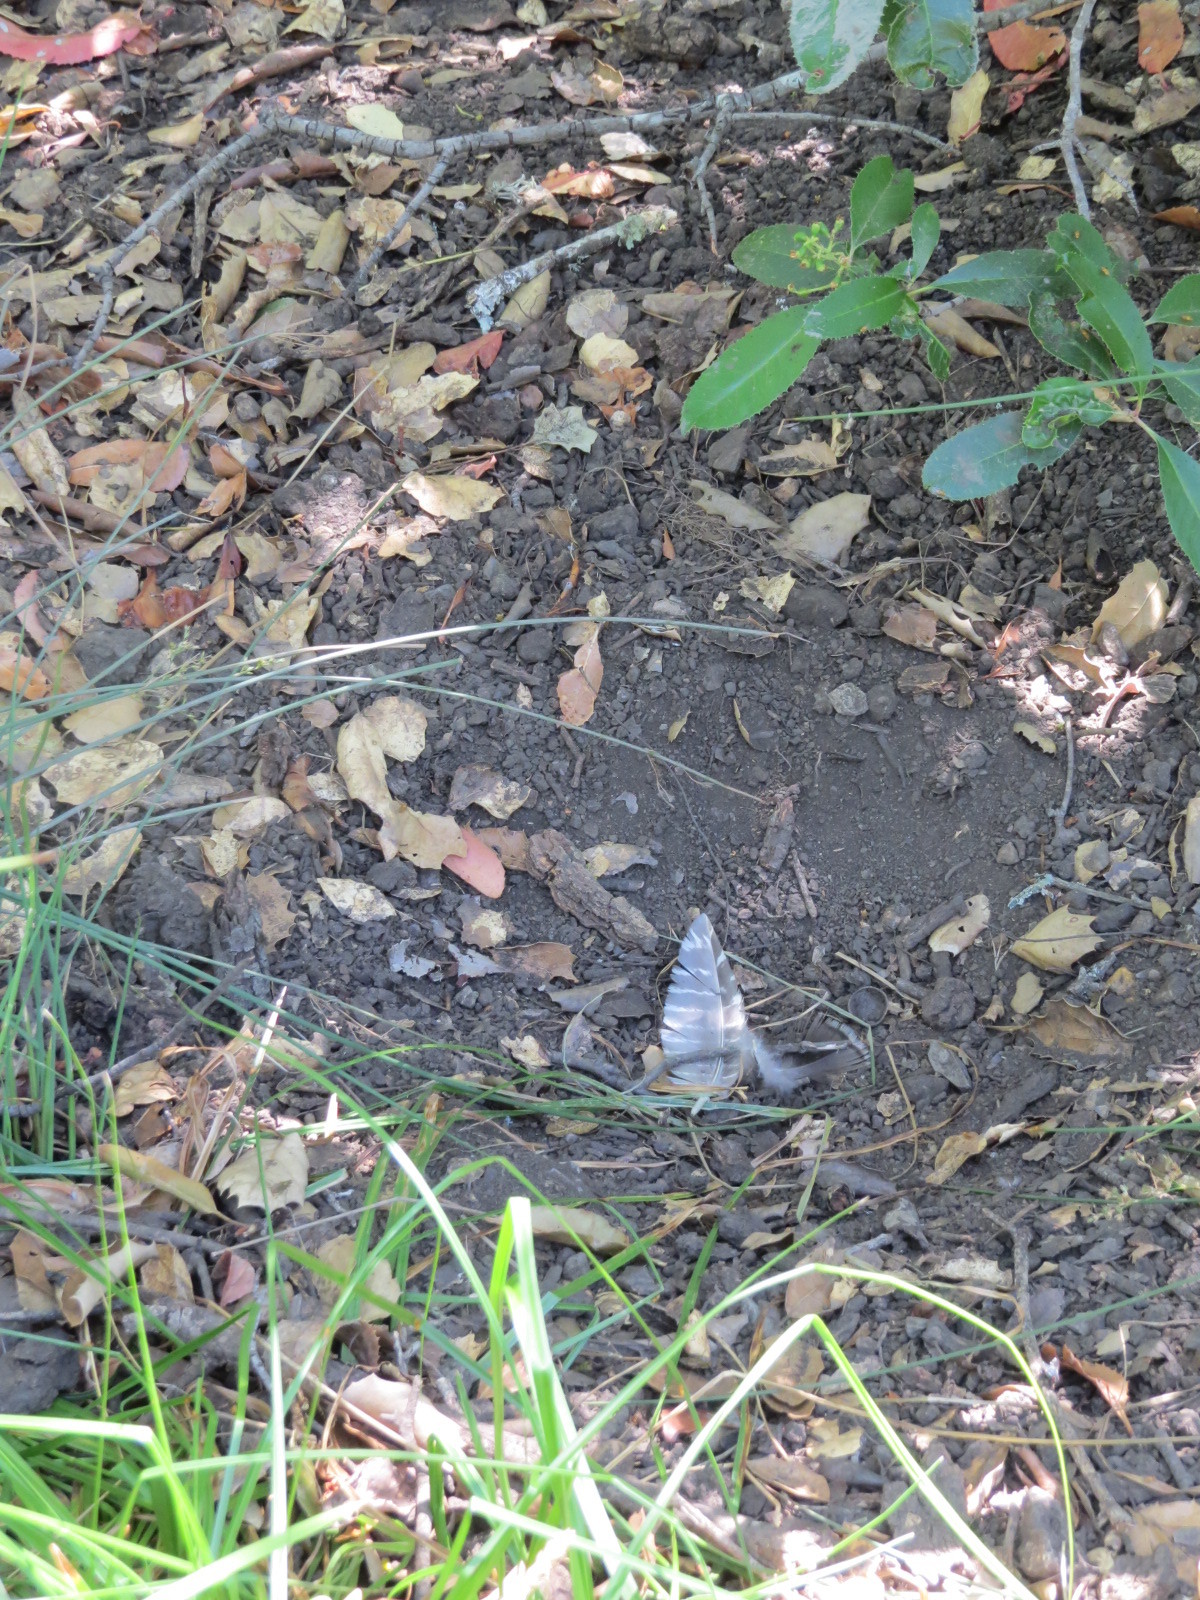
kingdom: Animalia
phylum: Chordata
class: Aves
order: Galliformes
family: Phasianidae
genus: Meleagris
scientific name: Meleagris gallopavo
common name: Wild turkey
